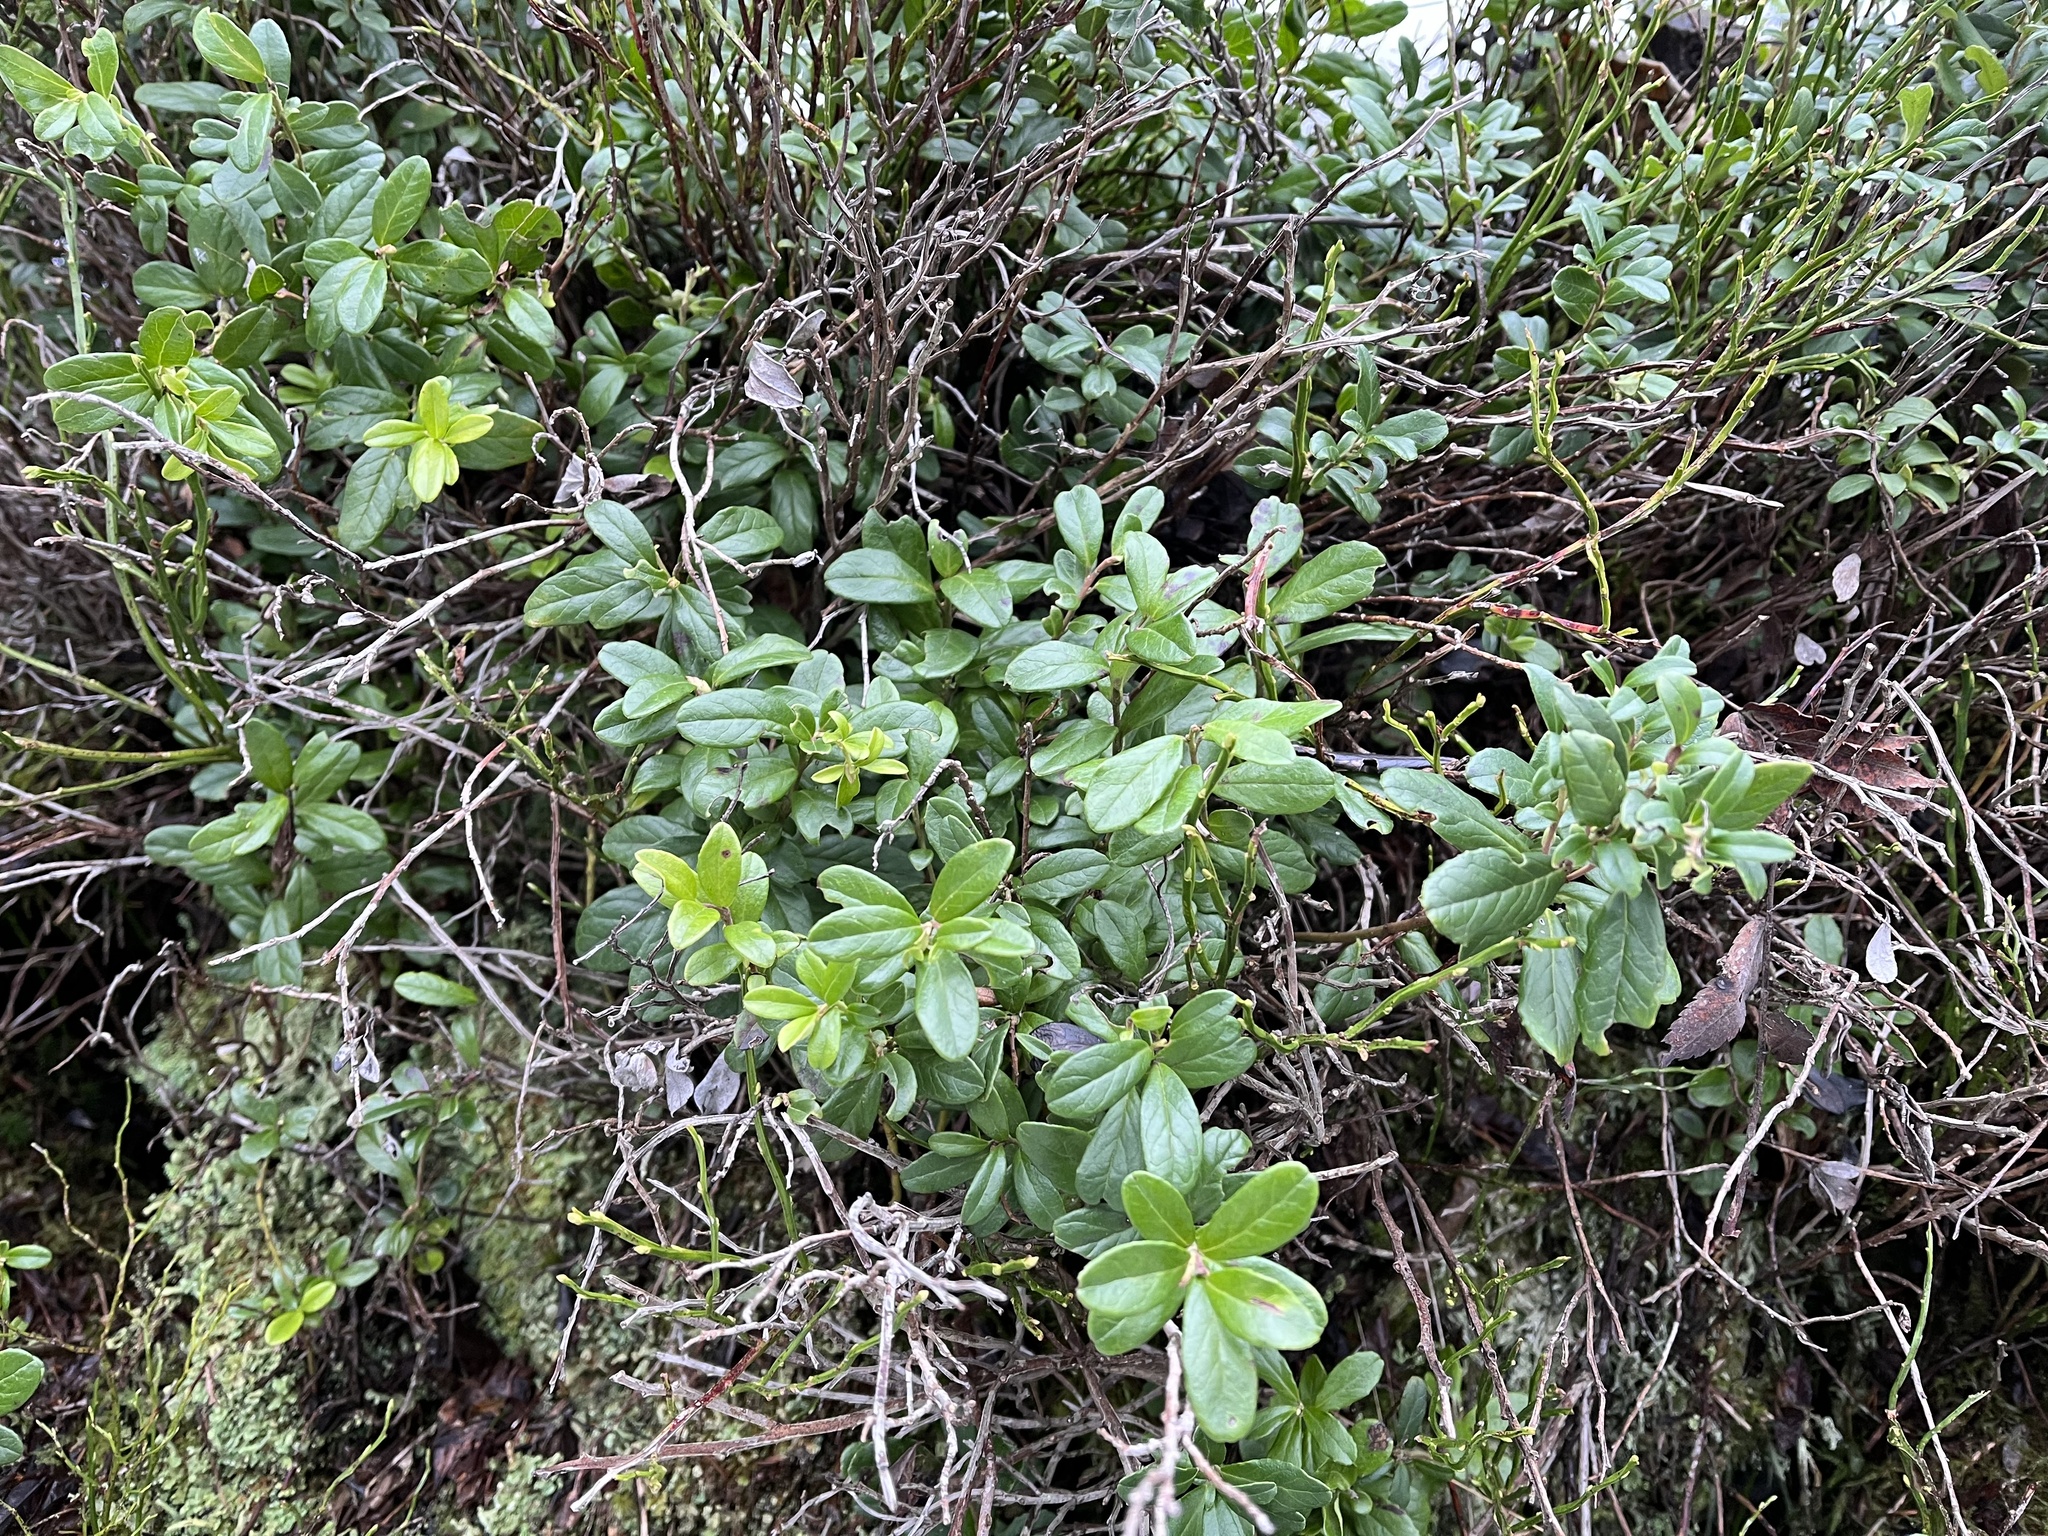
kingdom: Plantae
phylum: Tracheophyta
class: Magnoliopsida
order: Ericales
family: Ericaceae
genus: Vaccinium
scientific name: Vaccinium vitis-idaea
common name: Cowberry
